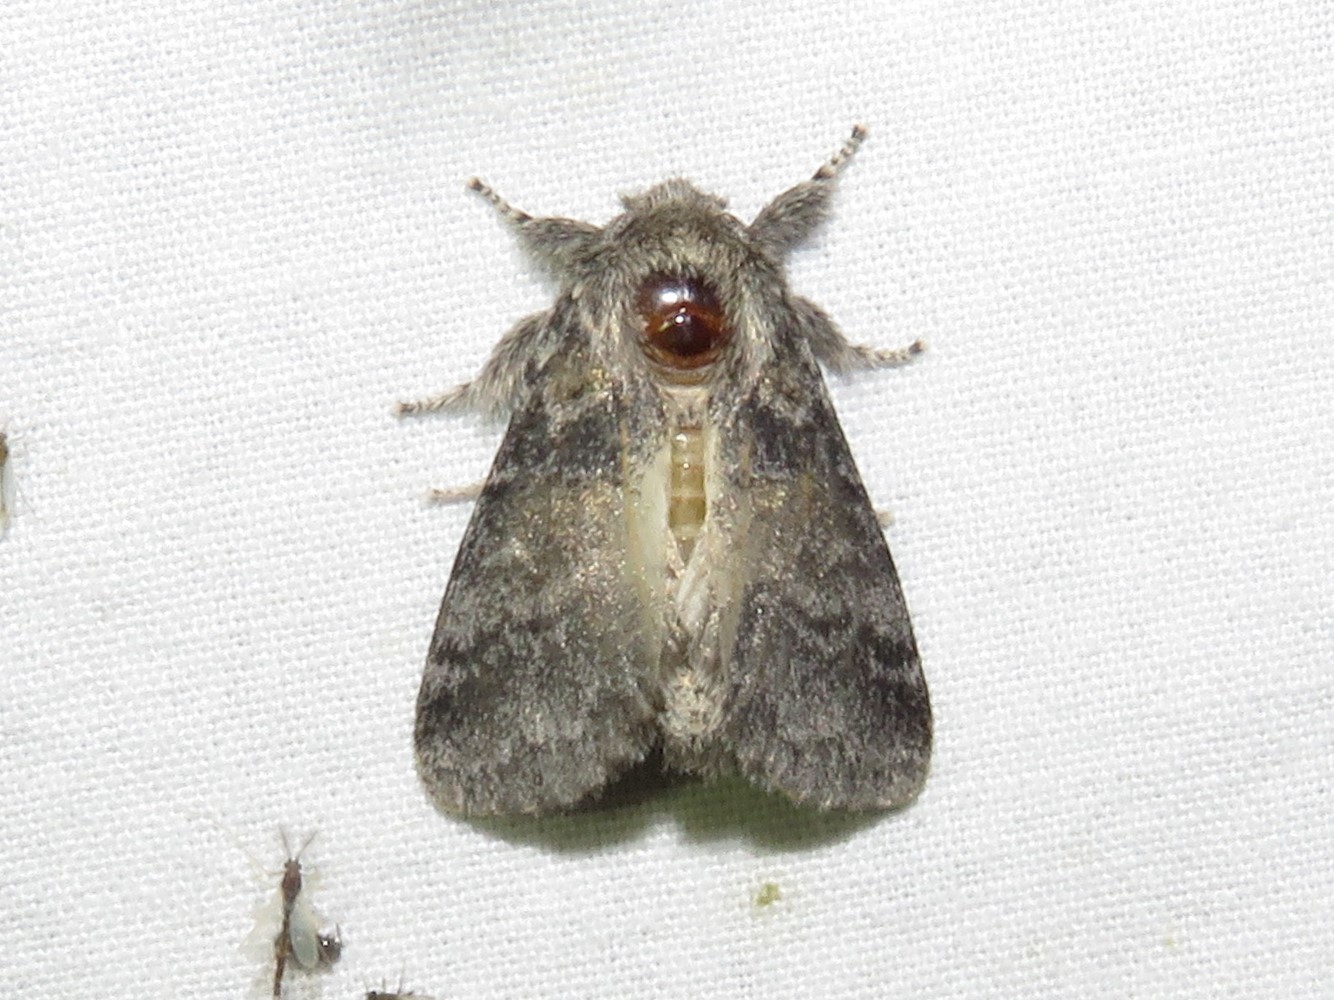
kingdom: Animalia
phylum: Arthropoda
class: Insecta
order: Lepidoptera
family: Notodontidae
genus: Gluphisia
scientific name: Gluphisia septentrionis
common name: Common gluphisia
